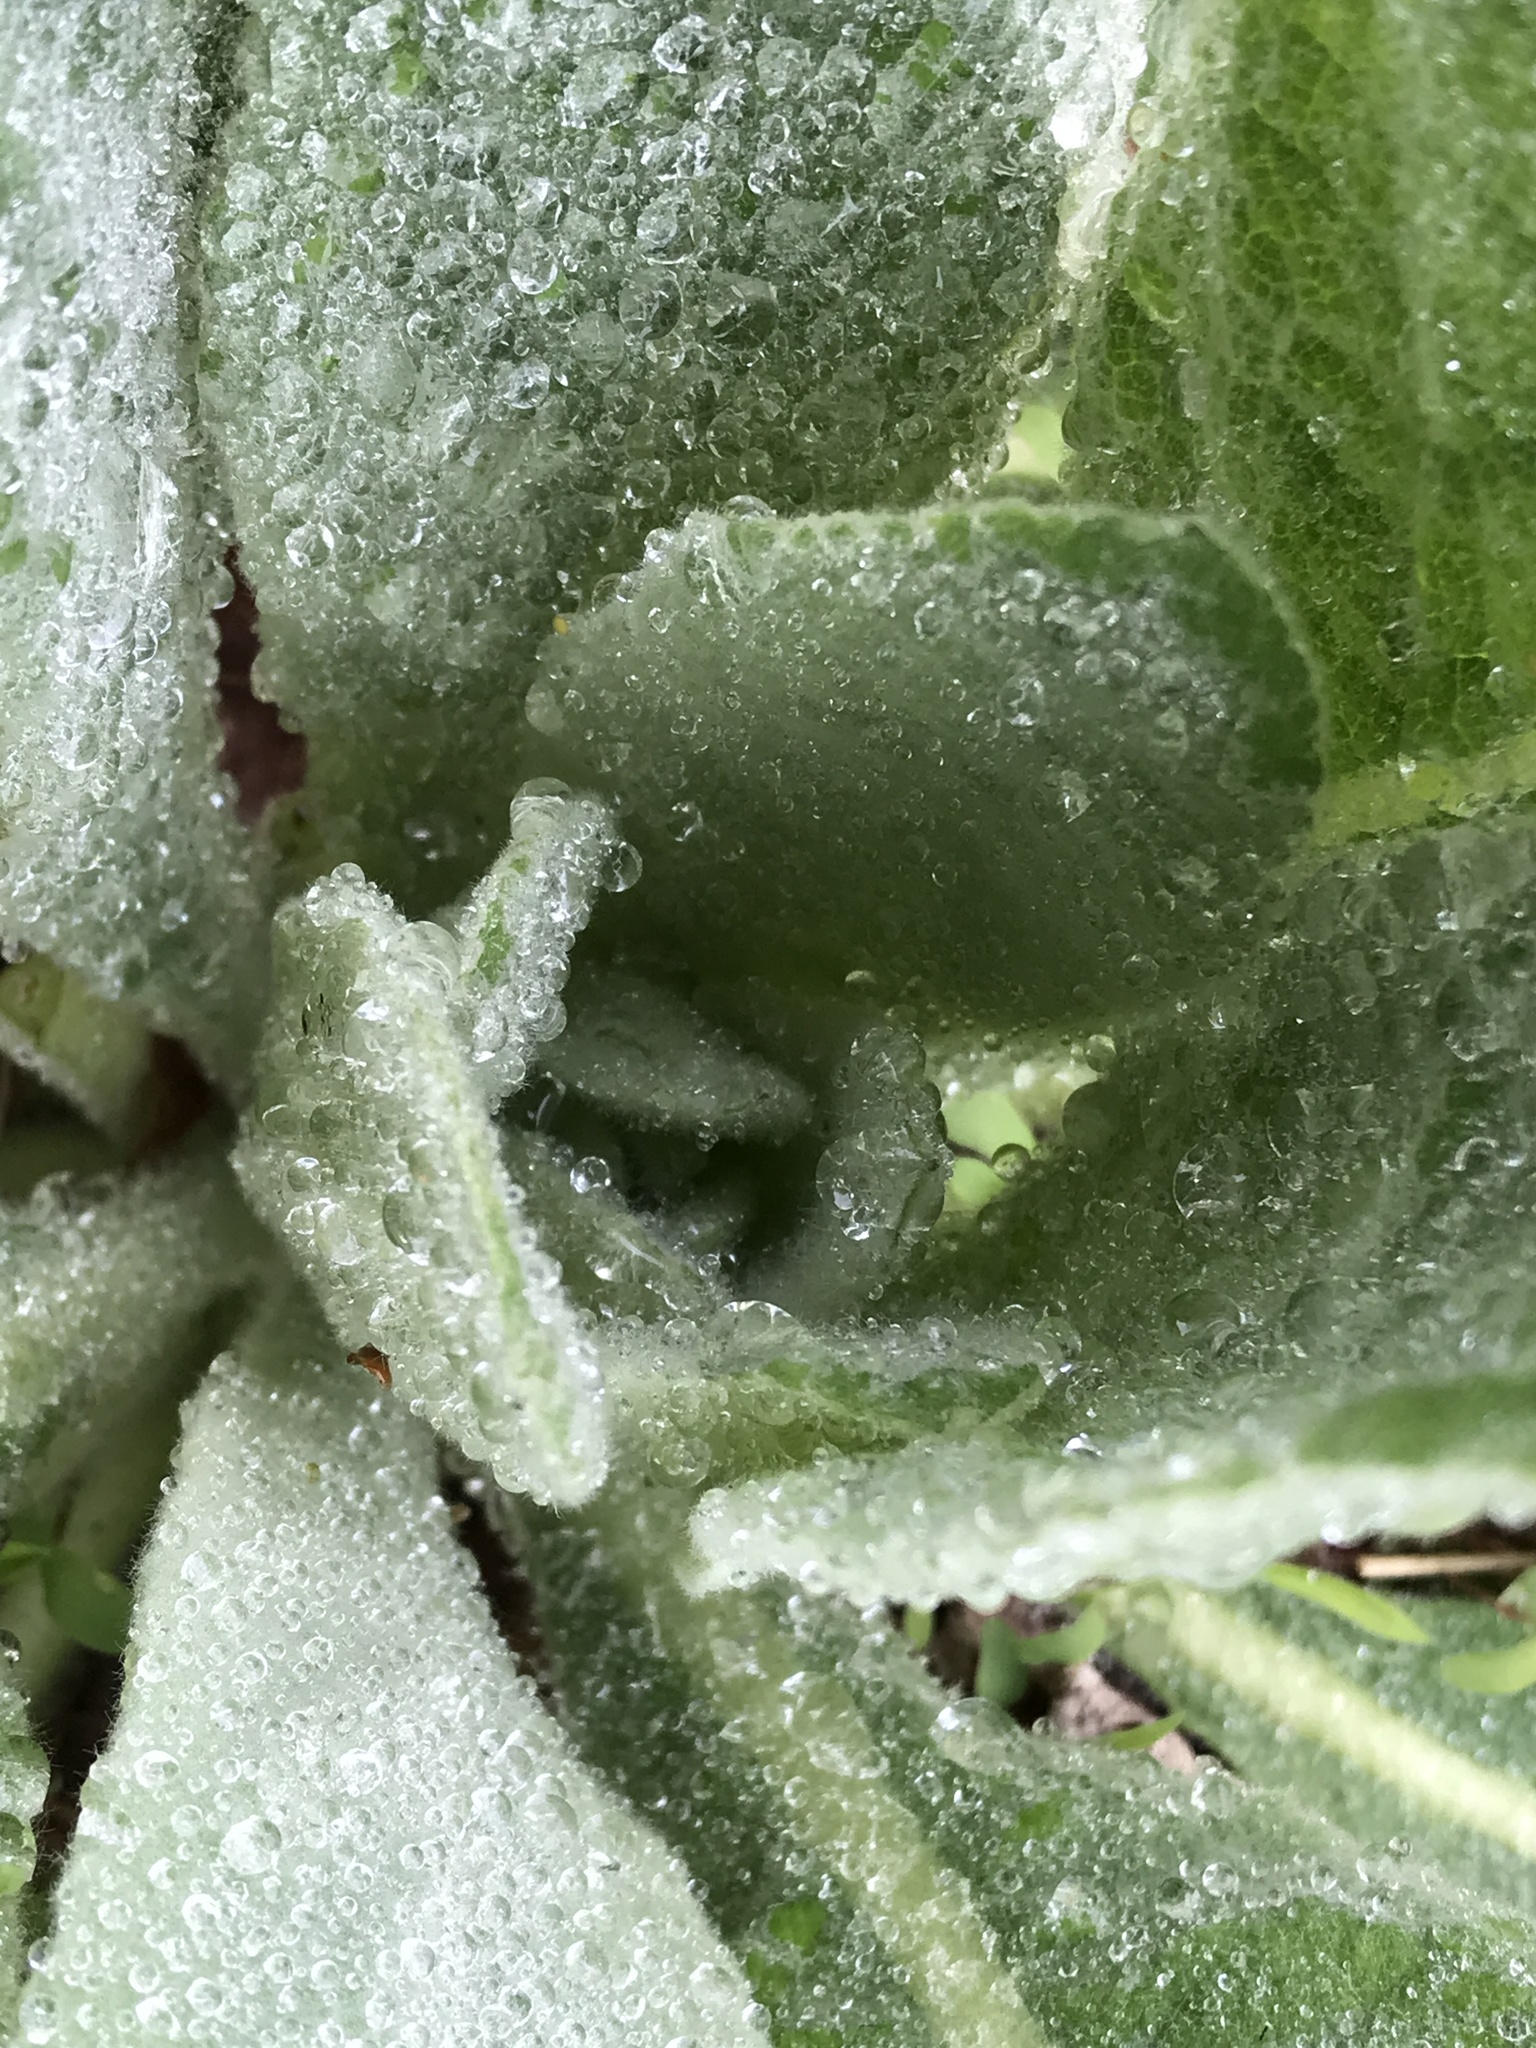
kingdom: Plantae
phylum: Tracheophyta
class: Magnoliopsida
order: Lamiales
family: Scrophulariaceae
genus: Verbascum
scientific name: Verbascum thapsus
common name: Common mullein
